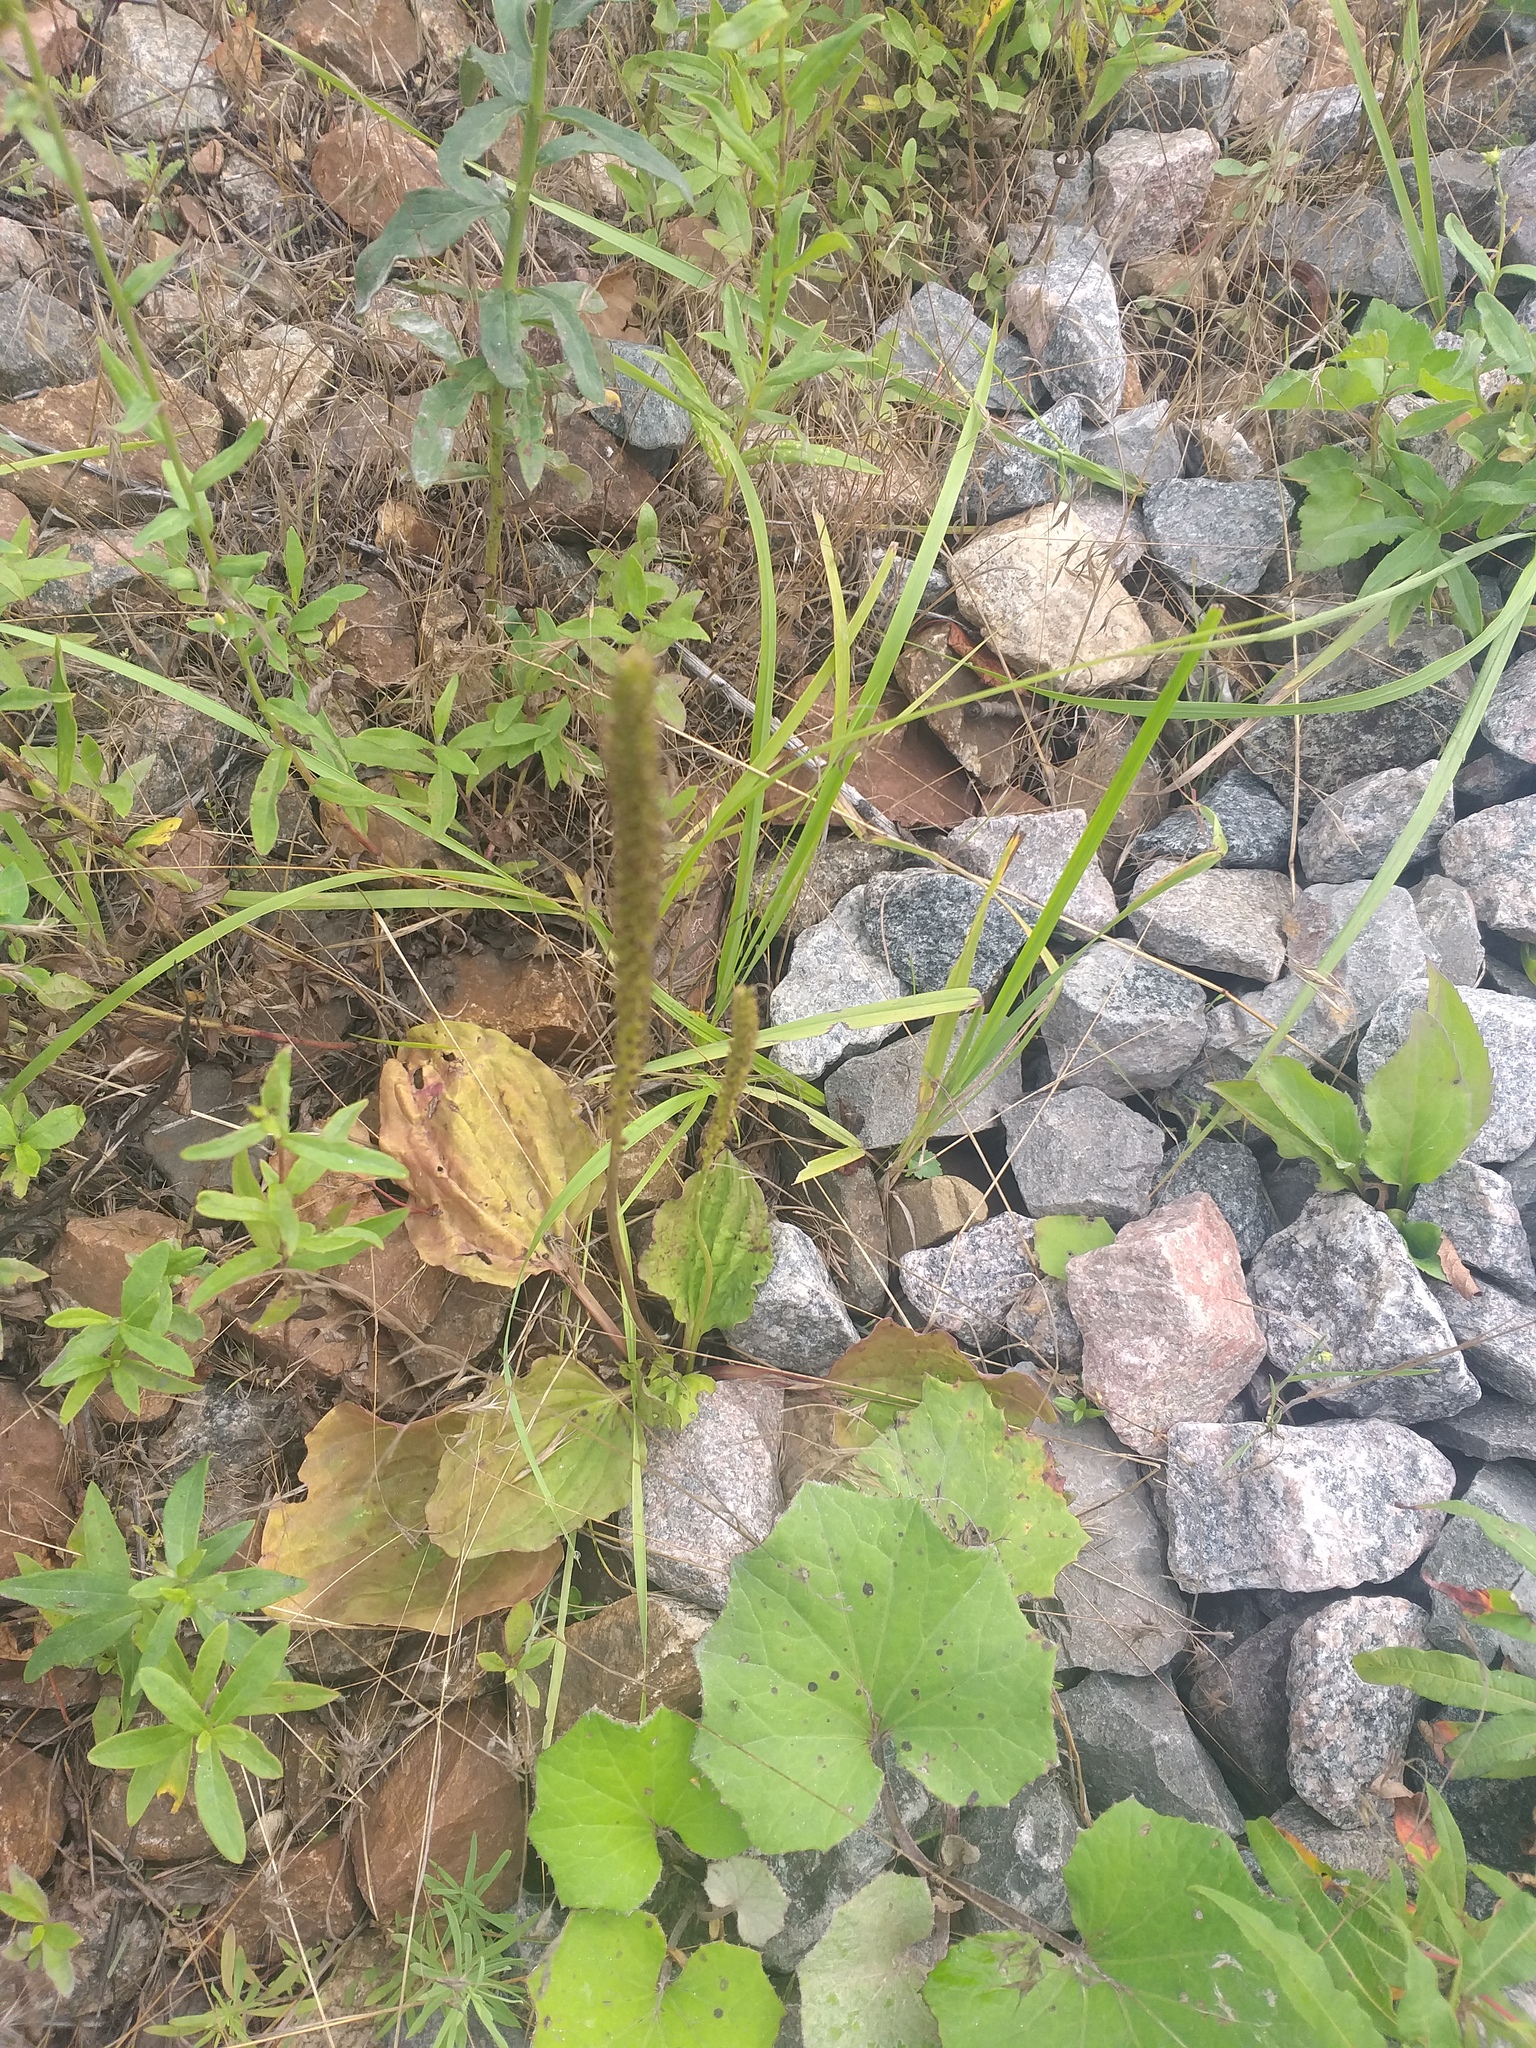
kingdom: Plantae
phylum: Tracheophyta
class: Magnoliopsida
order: Lamiales
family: Plantaginaceae
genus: Plantago
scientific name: Plantago major
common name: Common plantain
